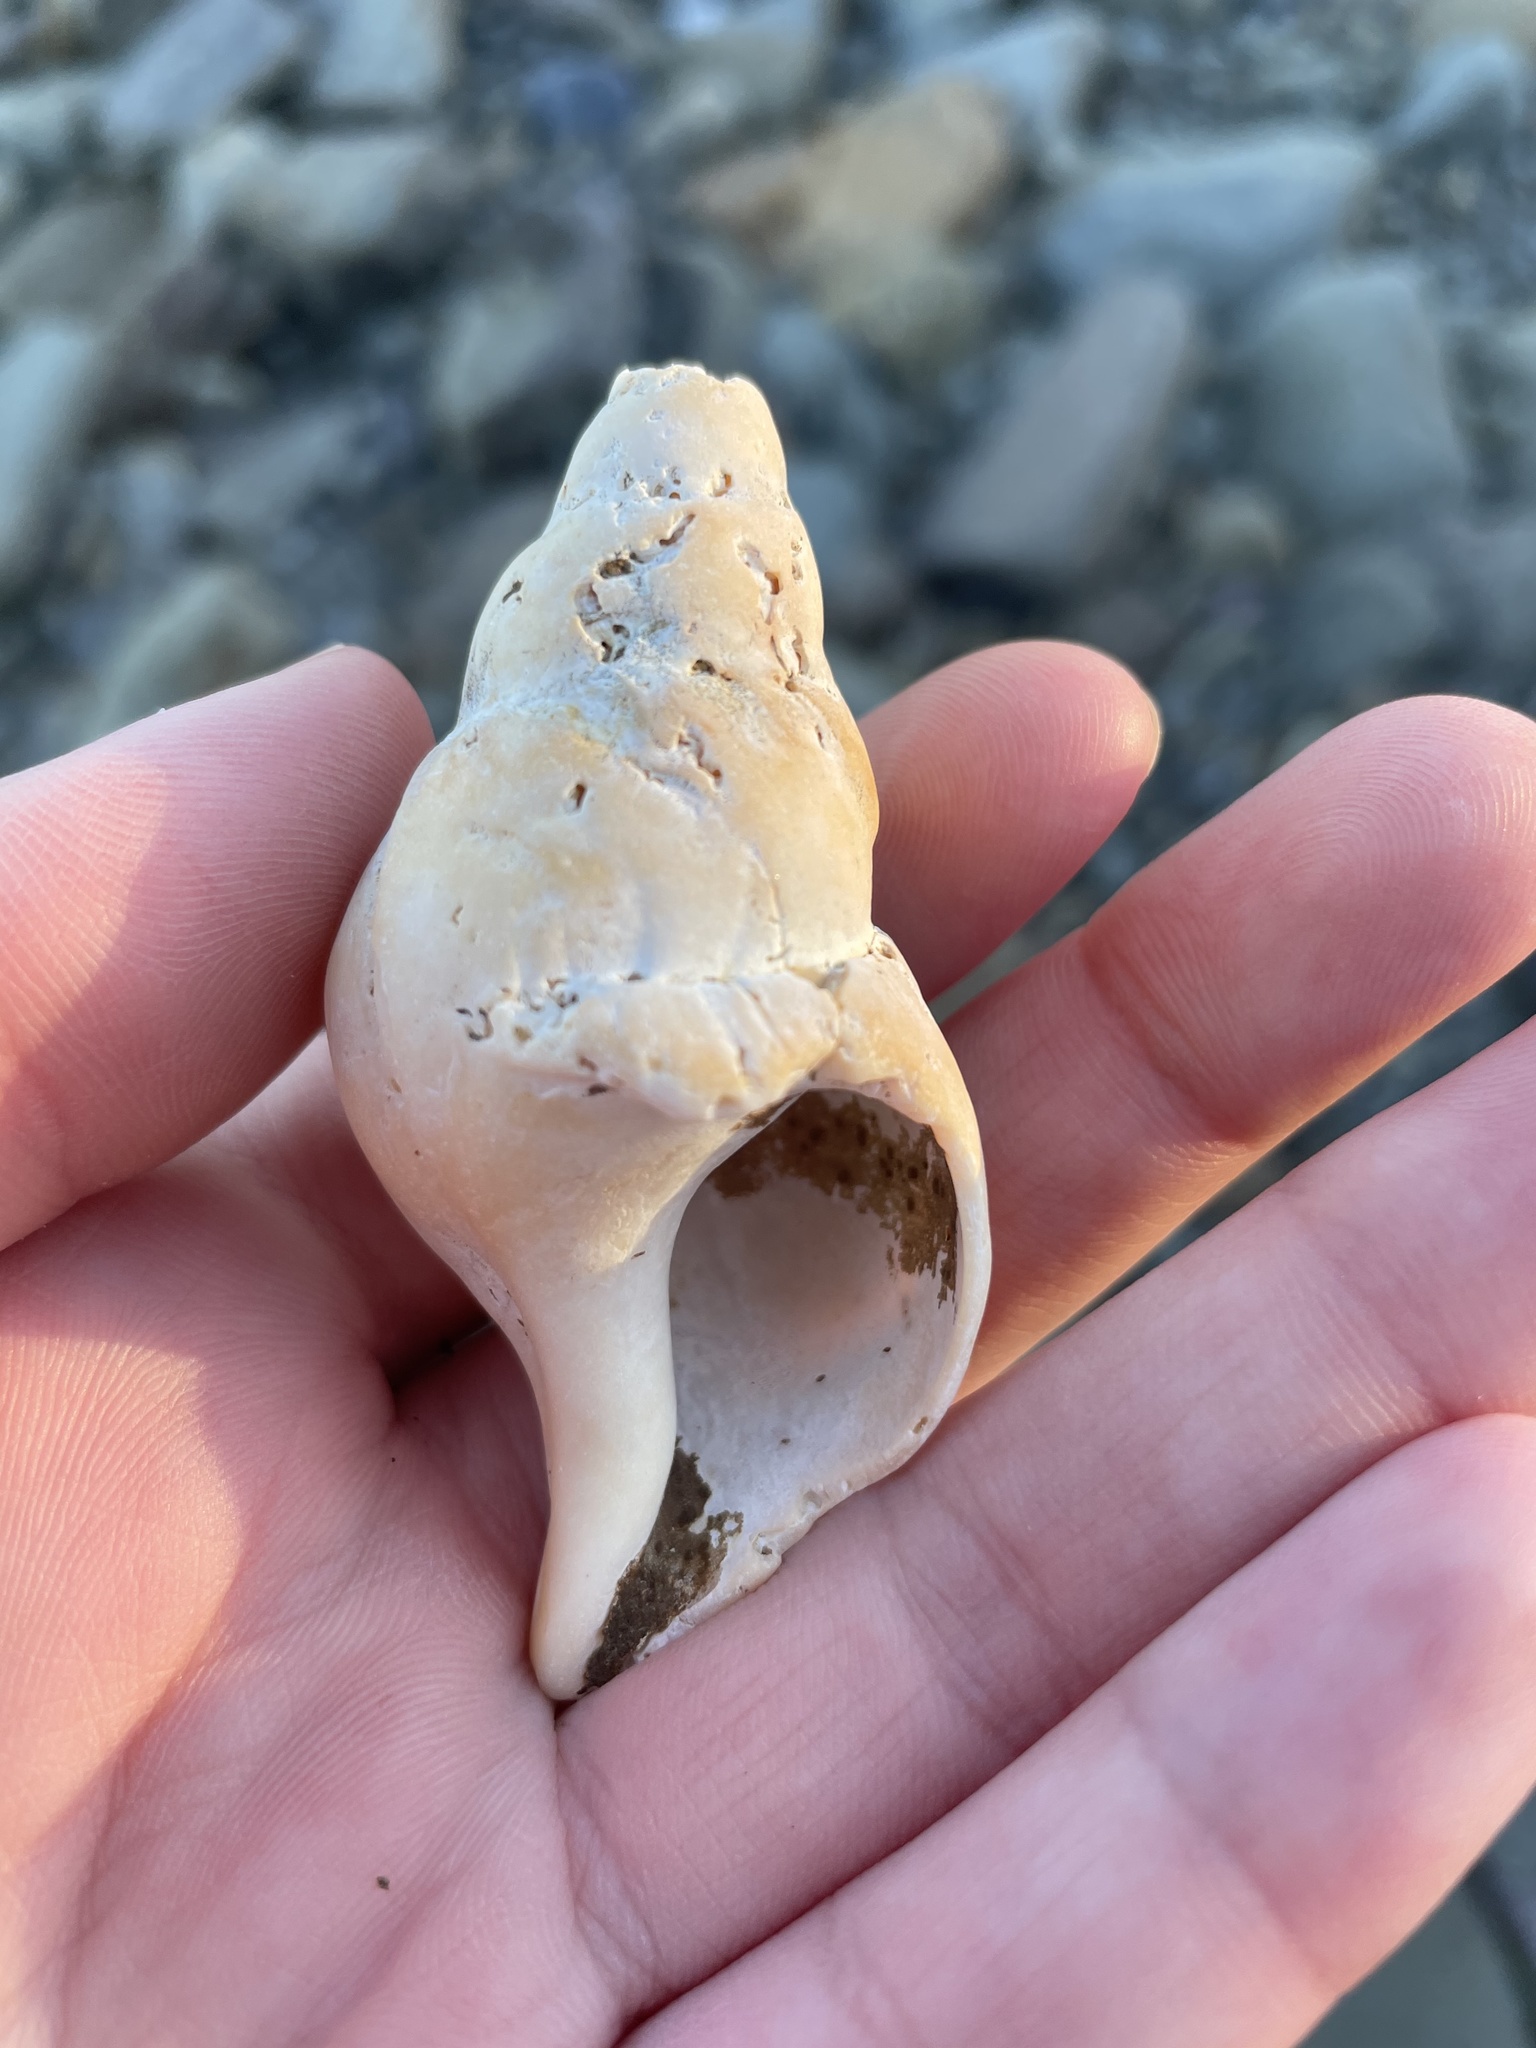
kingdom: Animalia
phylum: Mollusca
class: Gastropoda
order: Neogastropoda
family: Colidae
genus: Colus
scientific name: Colus stimpsoni
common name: Stimpson's colus
